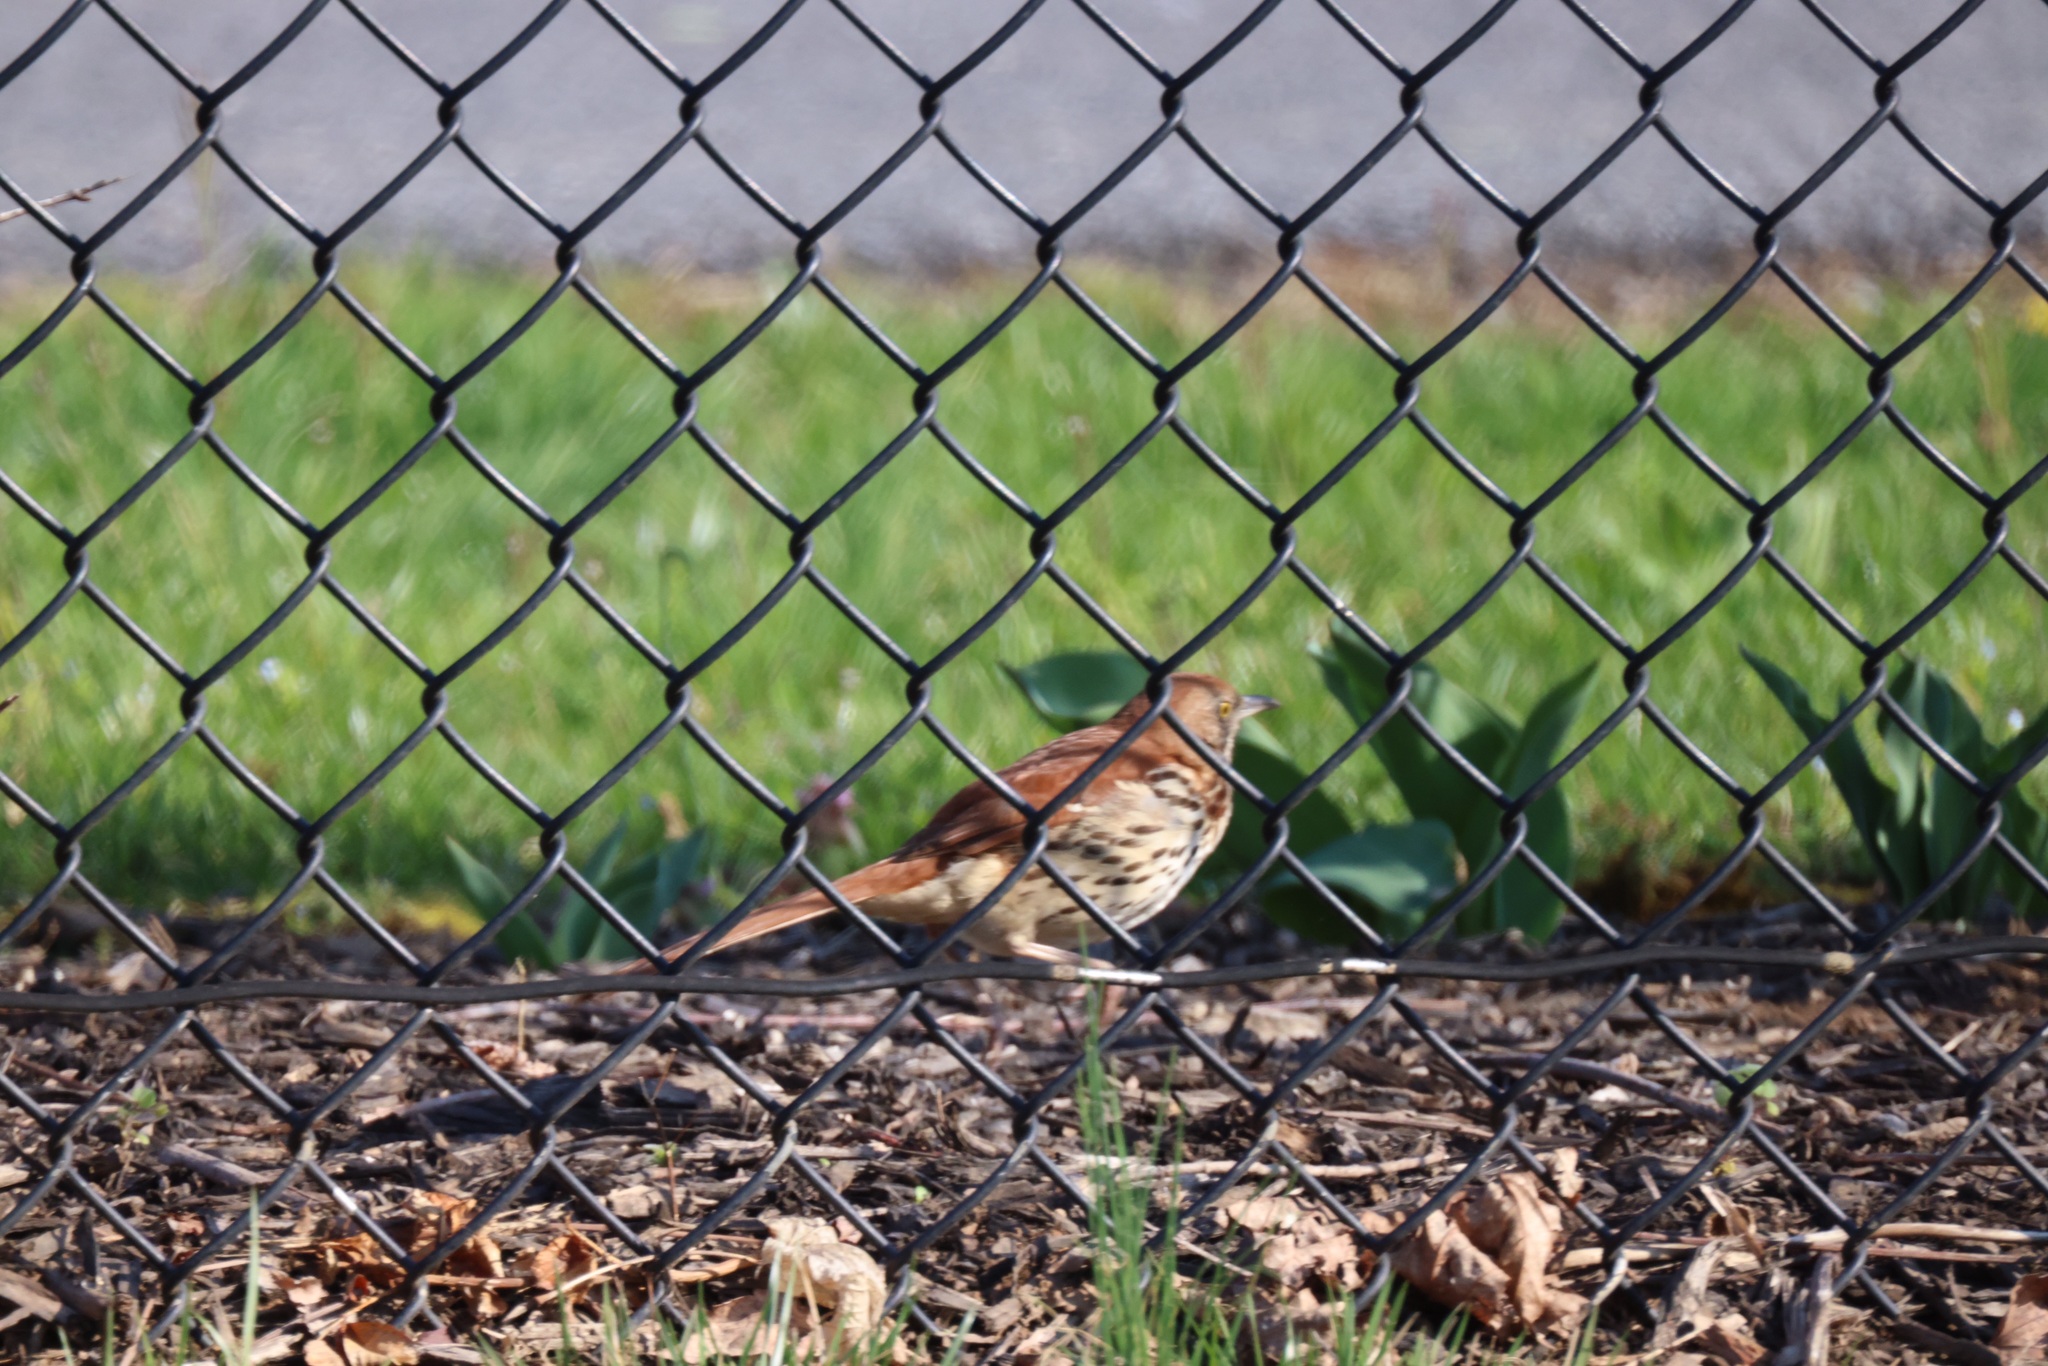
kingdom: Animalia
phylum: Chordata
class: Aves
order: Passeriformes
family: Mimidae
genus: Toxostoma
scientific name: Toxostoma rufum
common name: Brown thrasher
